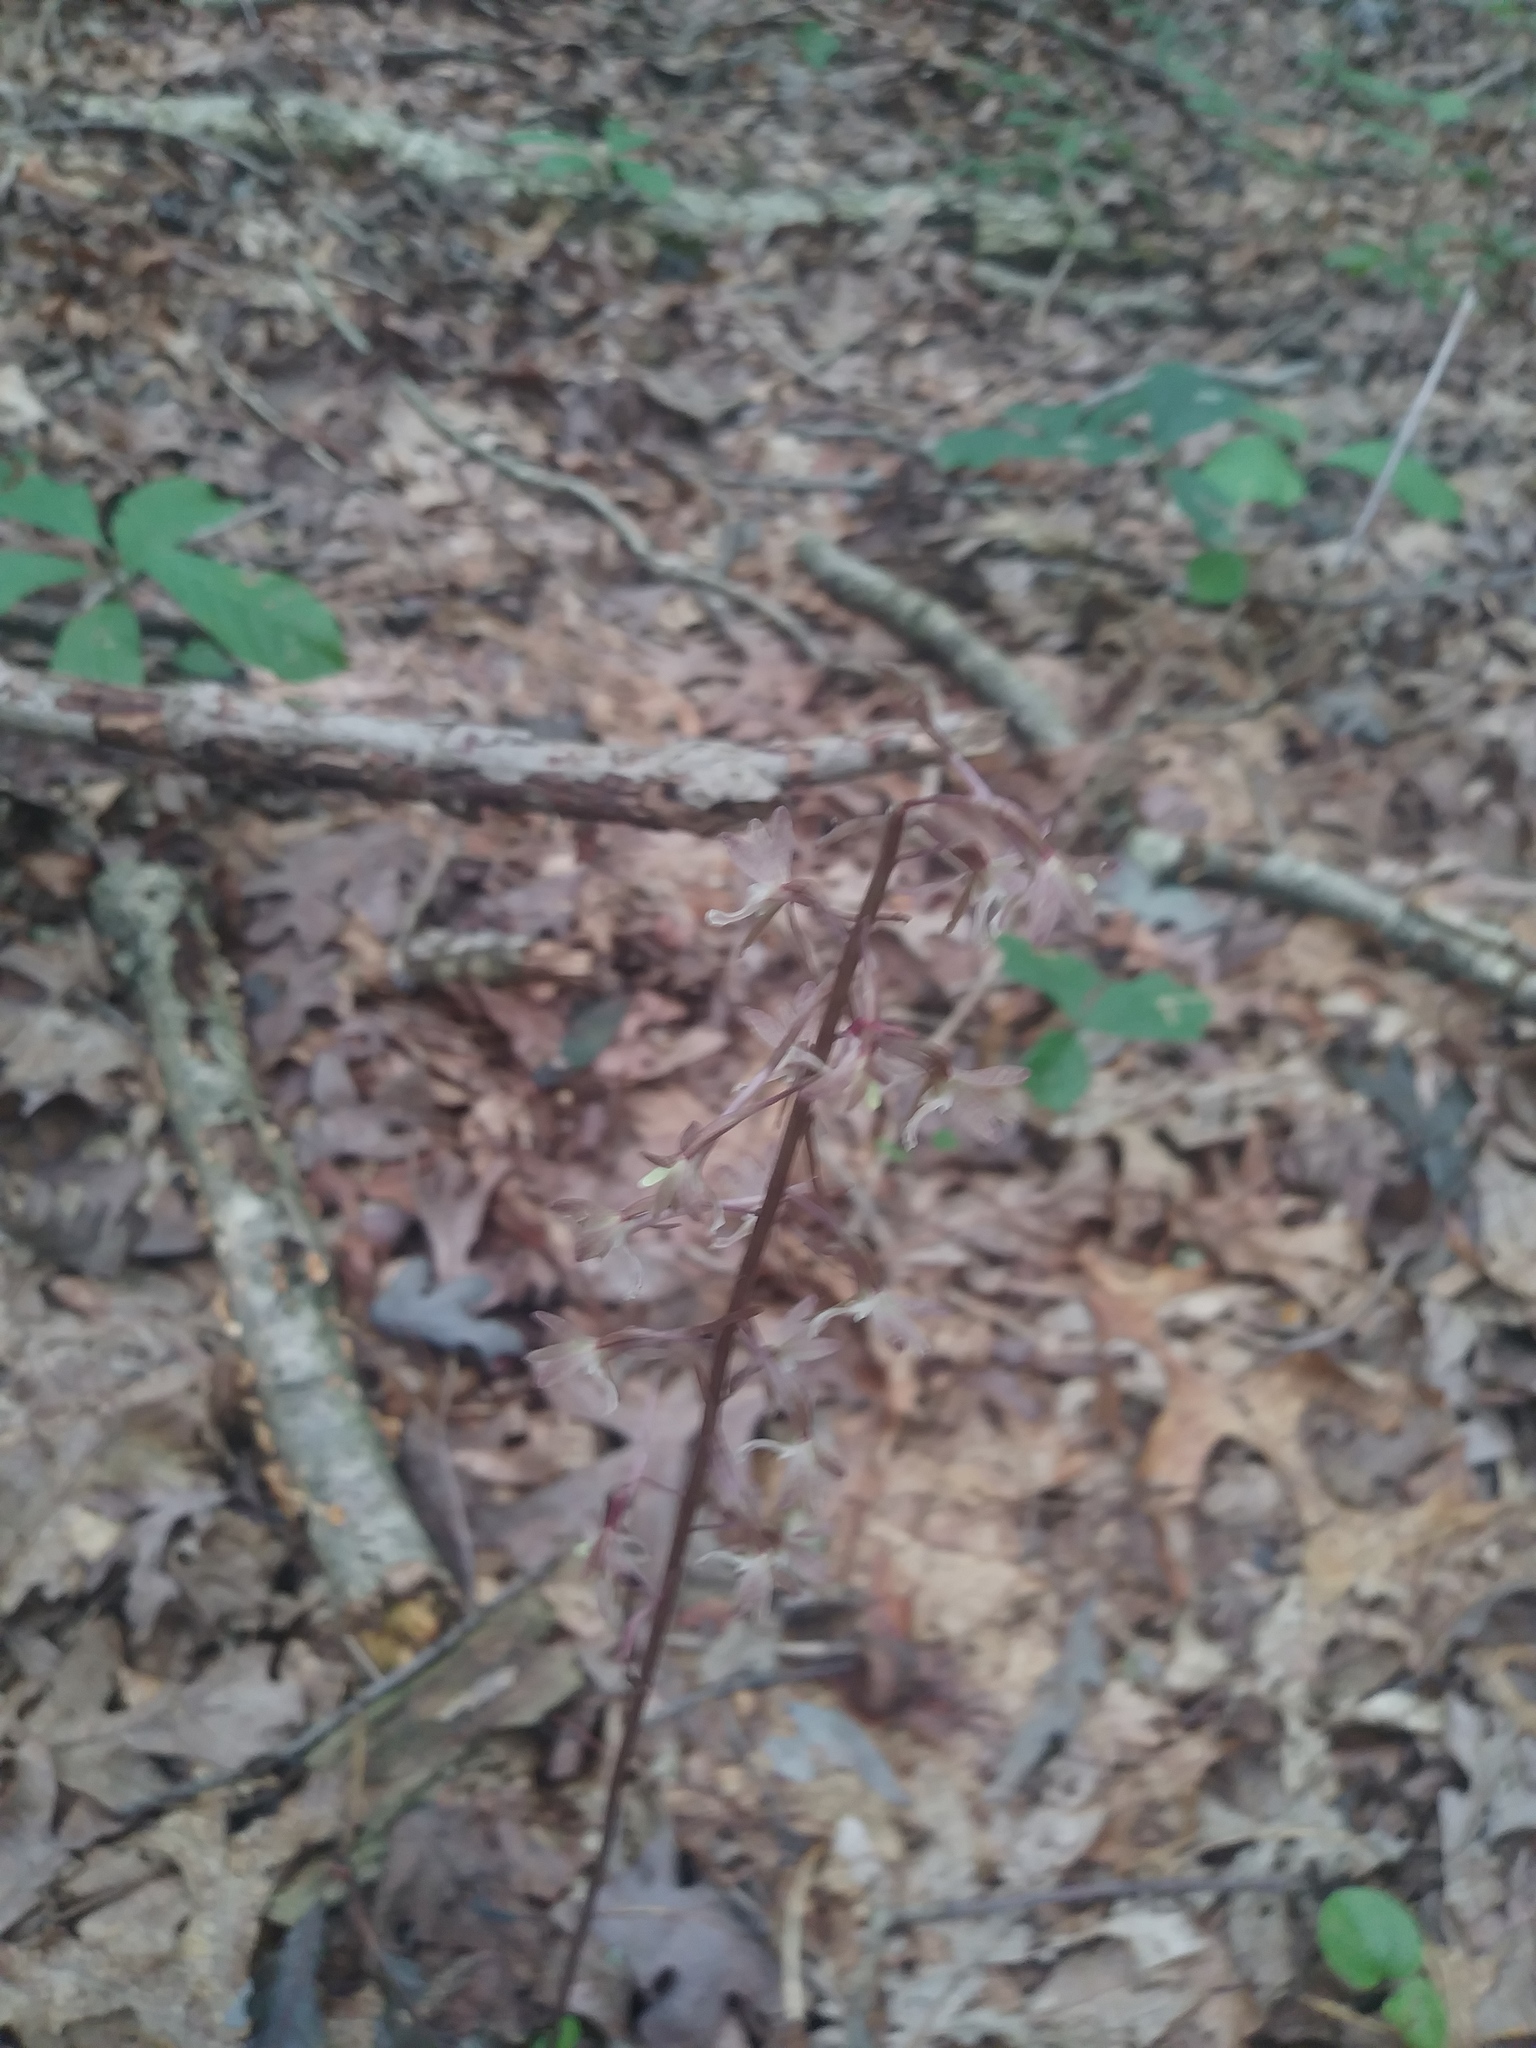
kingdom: Plantae
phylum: Tracheophyta
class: Liliopsida
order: Asparagales
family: Orchidaceae
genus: Tipularia
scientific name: Tipularia discolor
